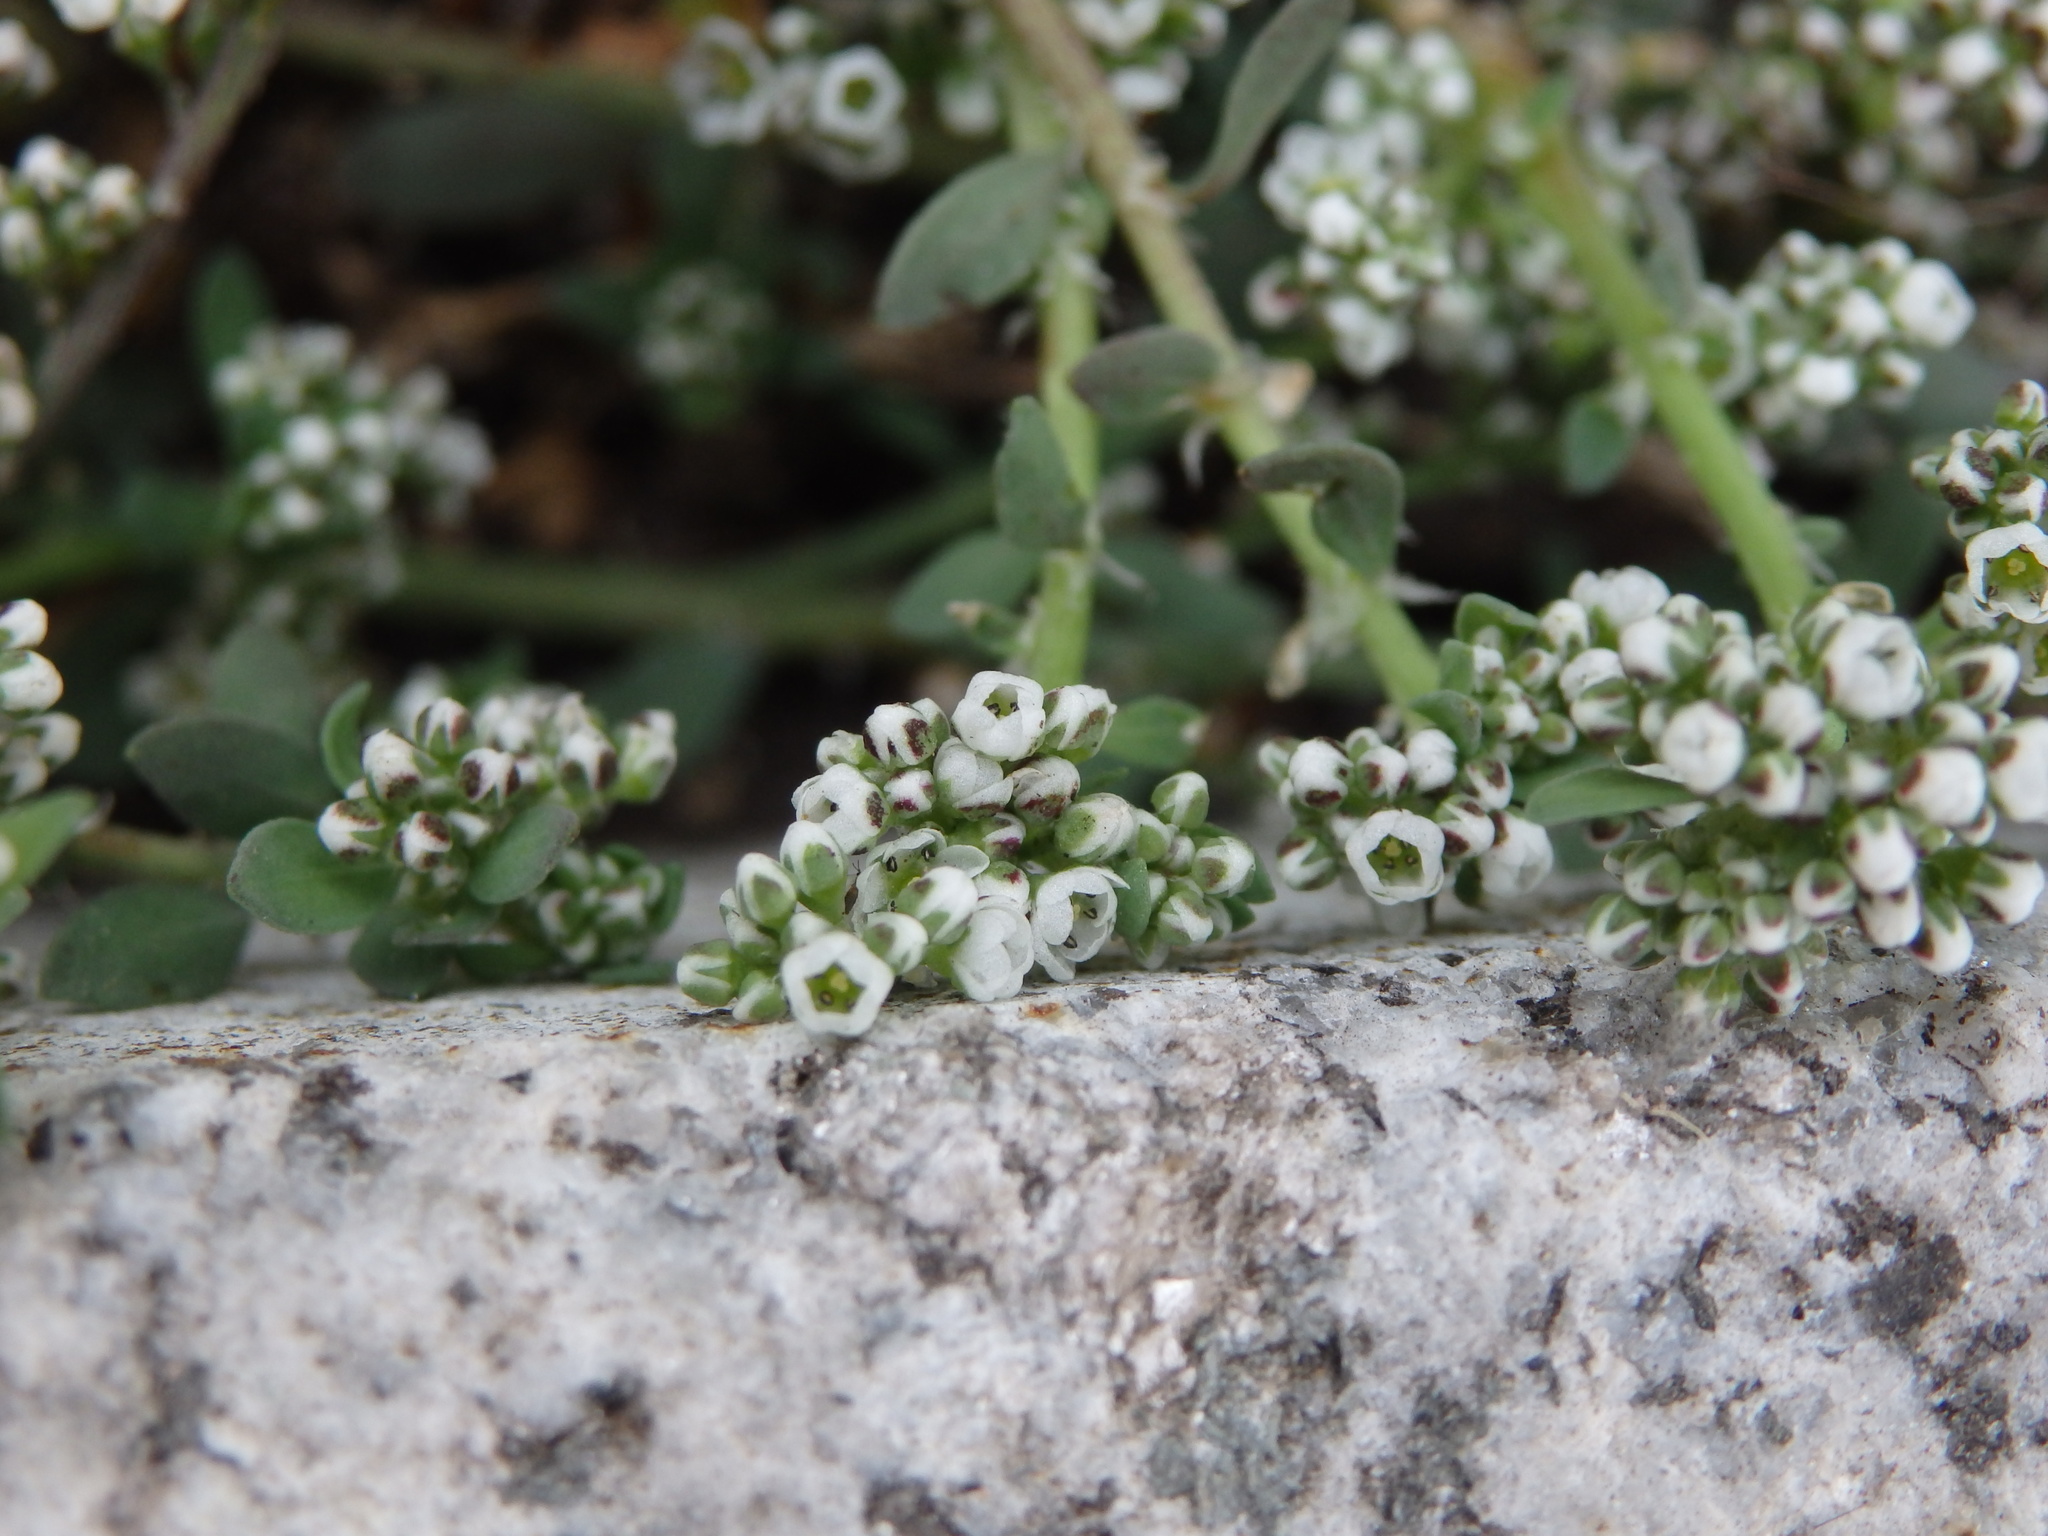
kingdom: Plantae
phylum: Tracheophyta
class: Magnoliopsida
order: Caryophyllales
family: Caryophyllaceae
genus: Corrigiola
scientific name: Corrigiola litoralis
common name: Strapwort
